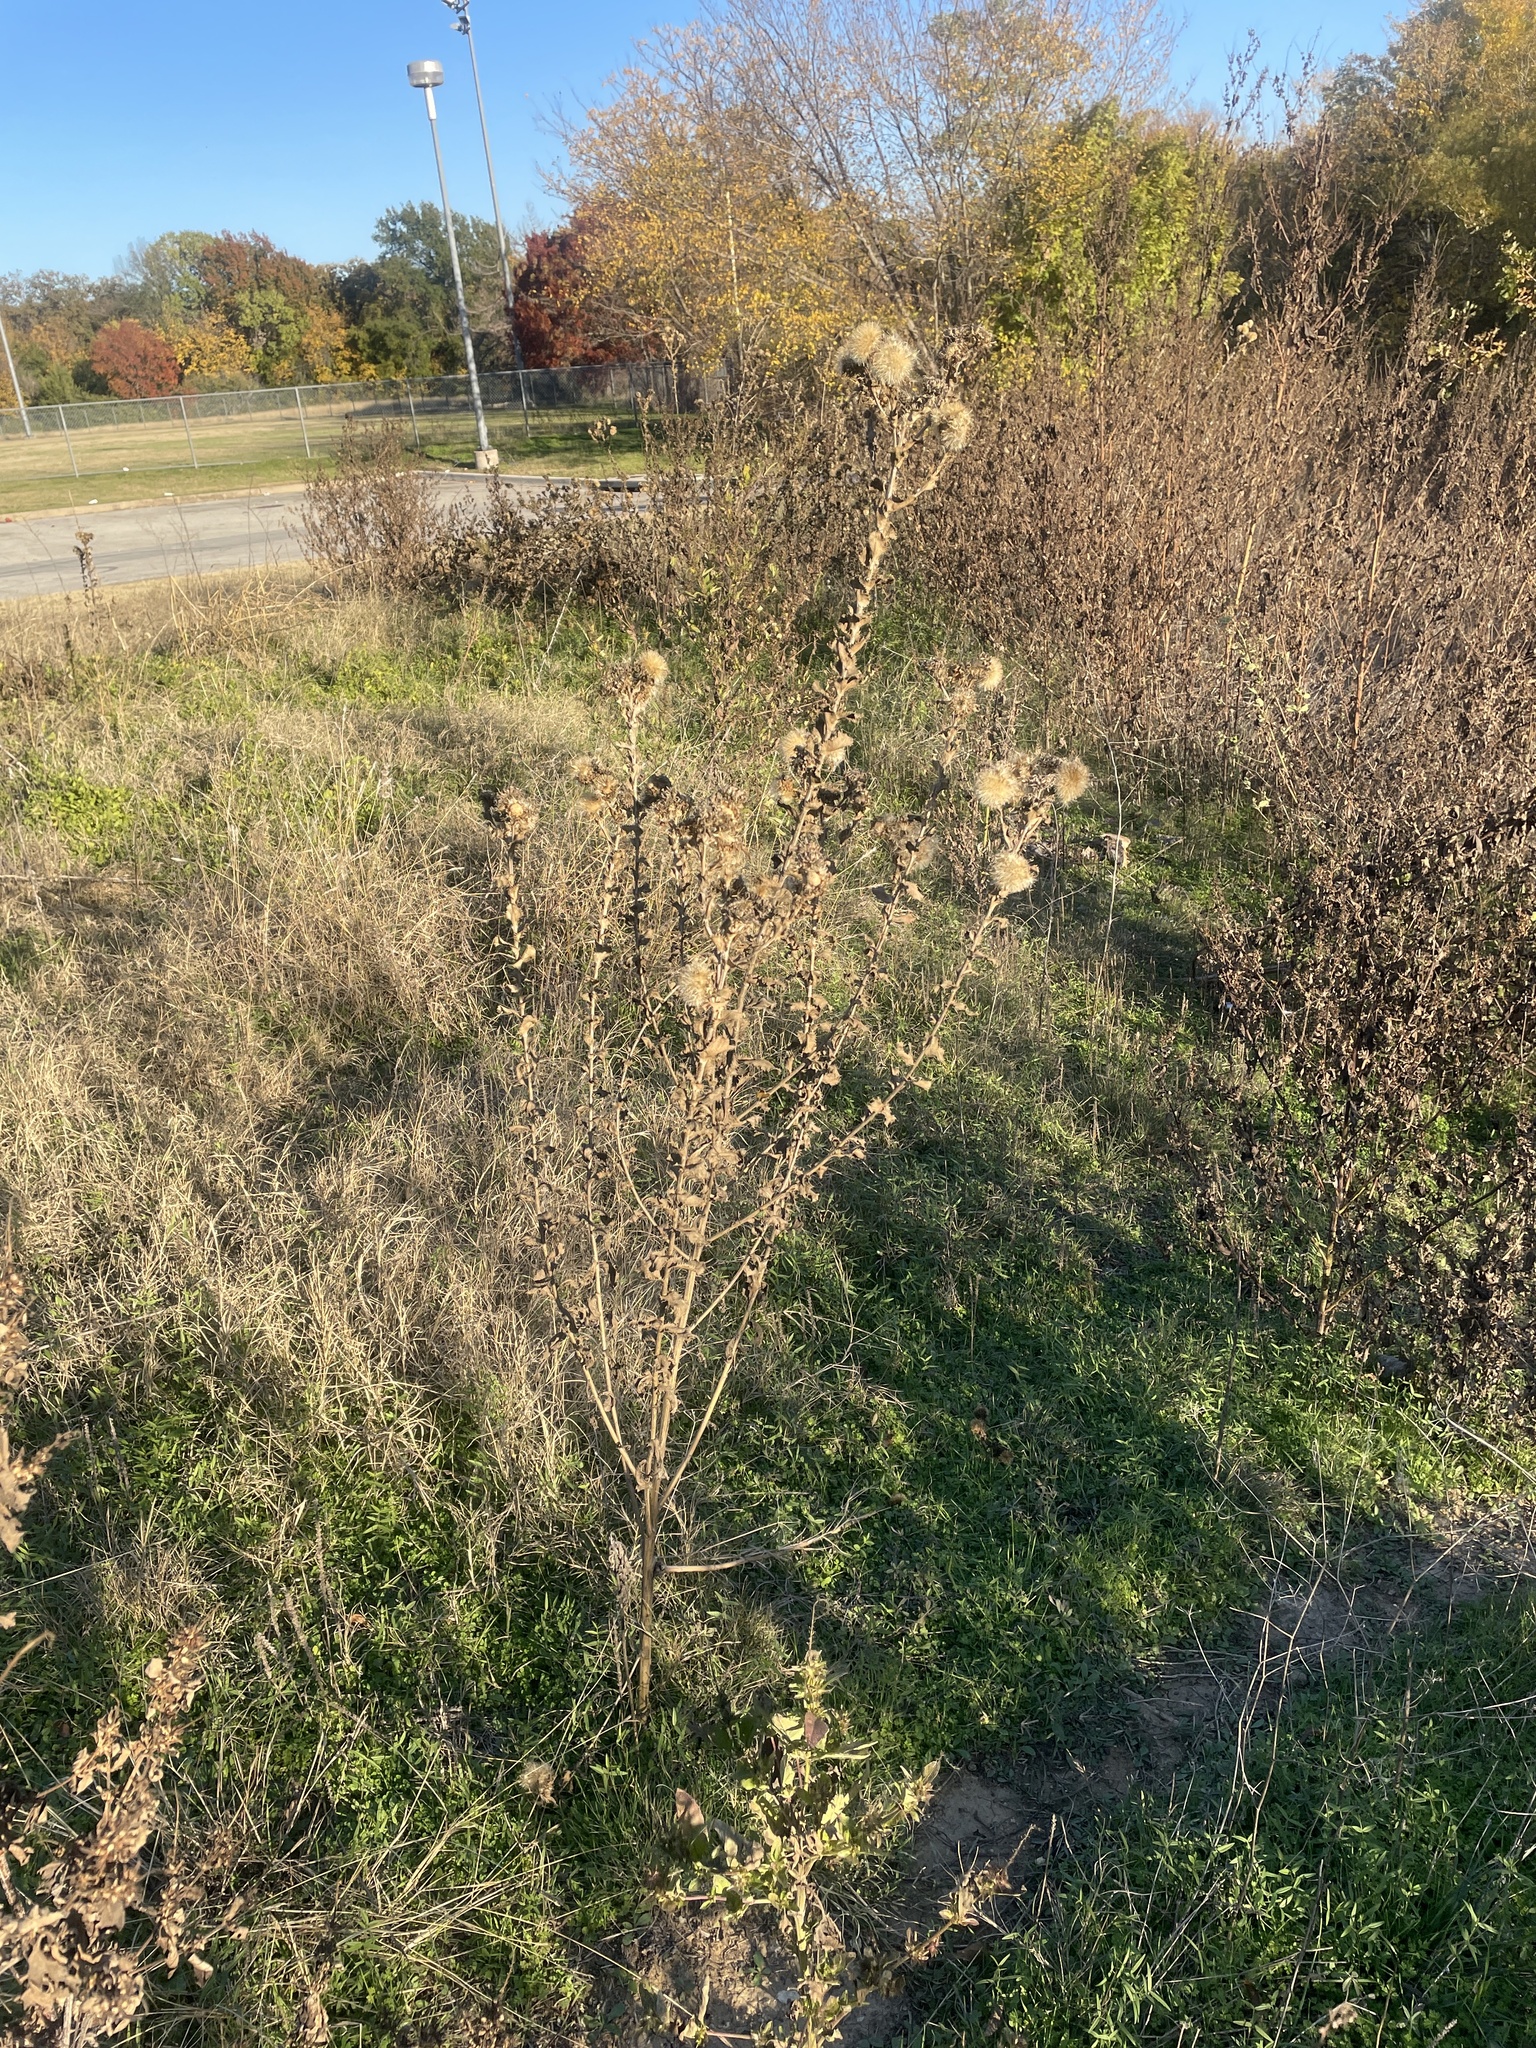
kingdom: Plantae
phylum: Tracheophyta
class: Magnoliopsida
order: Asterales
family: Asteraceae
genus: Grindelia
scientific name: Grindelia ciliata
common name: Goldenweed
